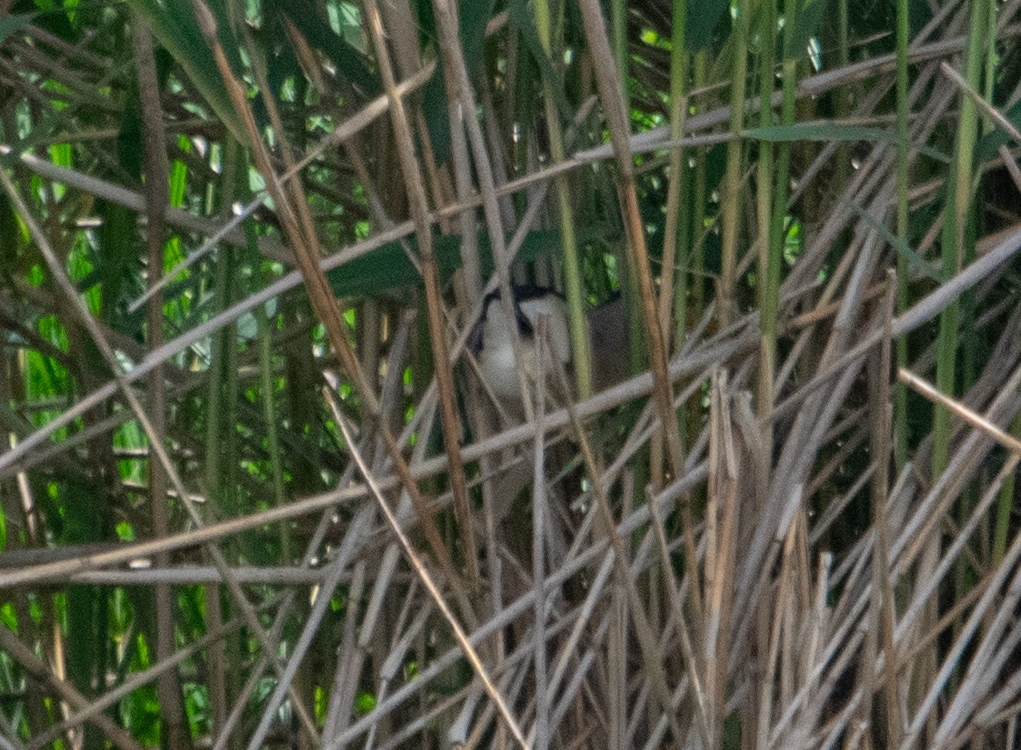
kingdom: Animalia
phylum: Chordata
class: Aves
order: Pelecaniformes
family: Ardeidae
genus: Ixobrychus
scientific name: Ixobrychus minutus
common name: Little bittern
